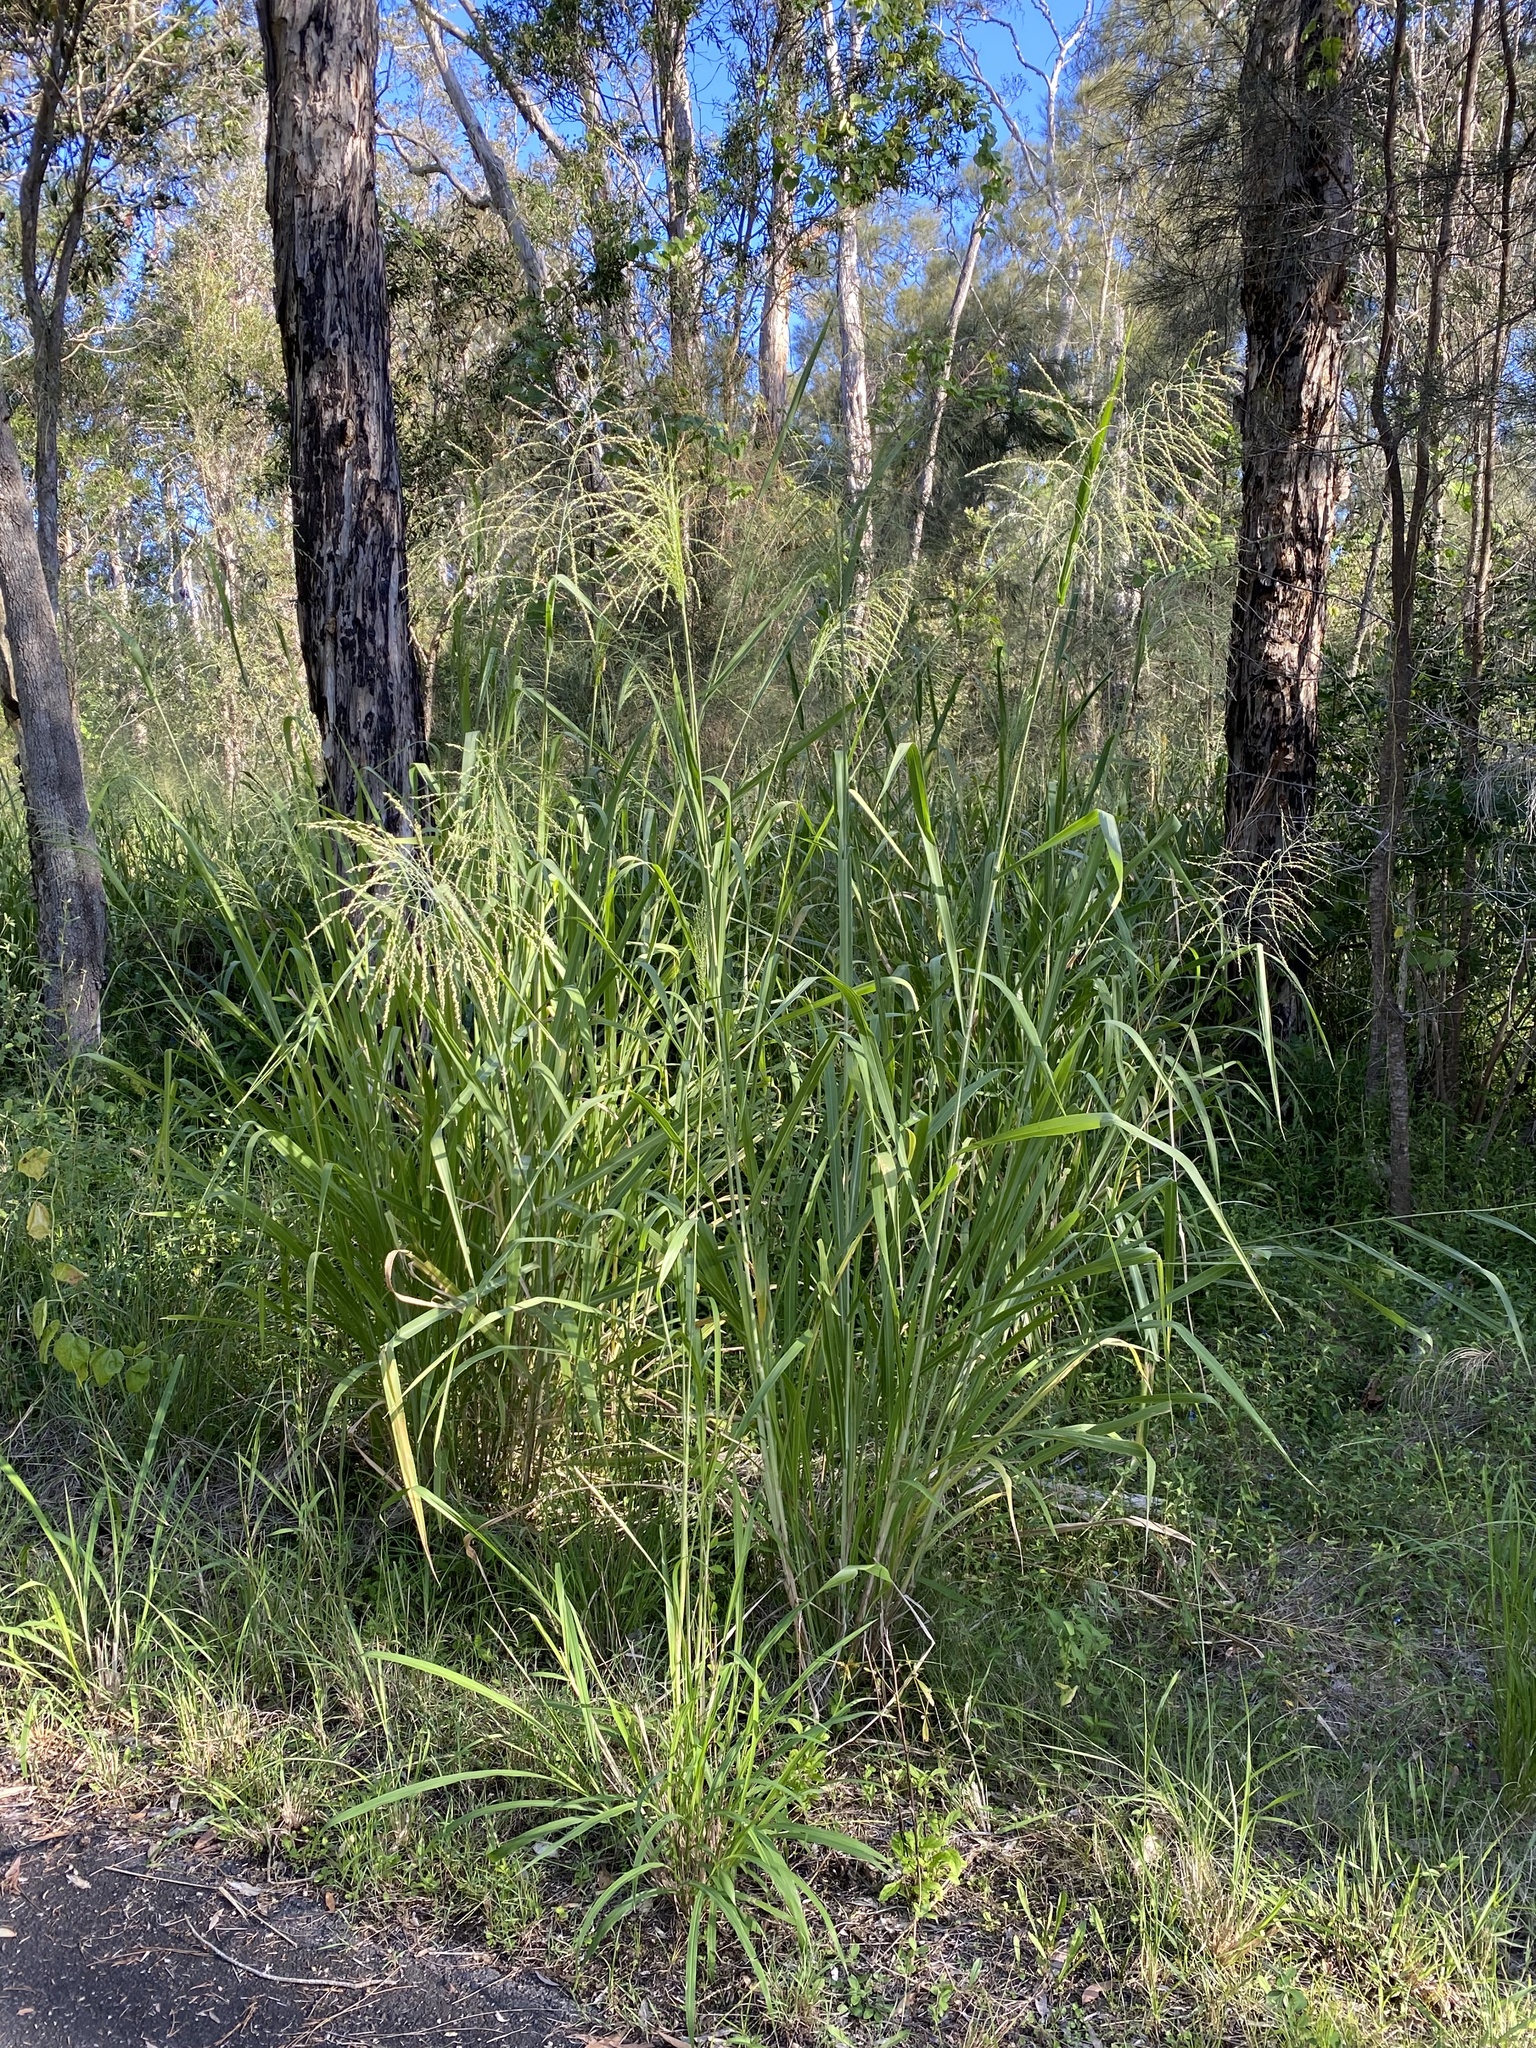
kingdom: Plantae
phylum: Tracheophyta
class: Liliopsida
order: Poales
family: Poaceae
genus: Megathyrsus
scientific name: Megathyrsus maximus
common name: Guineagrass
